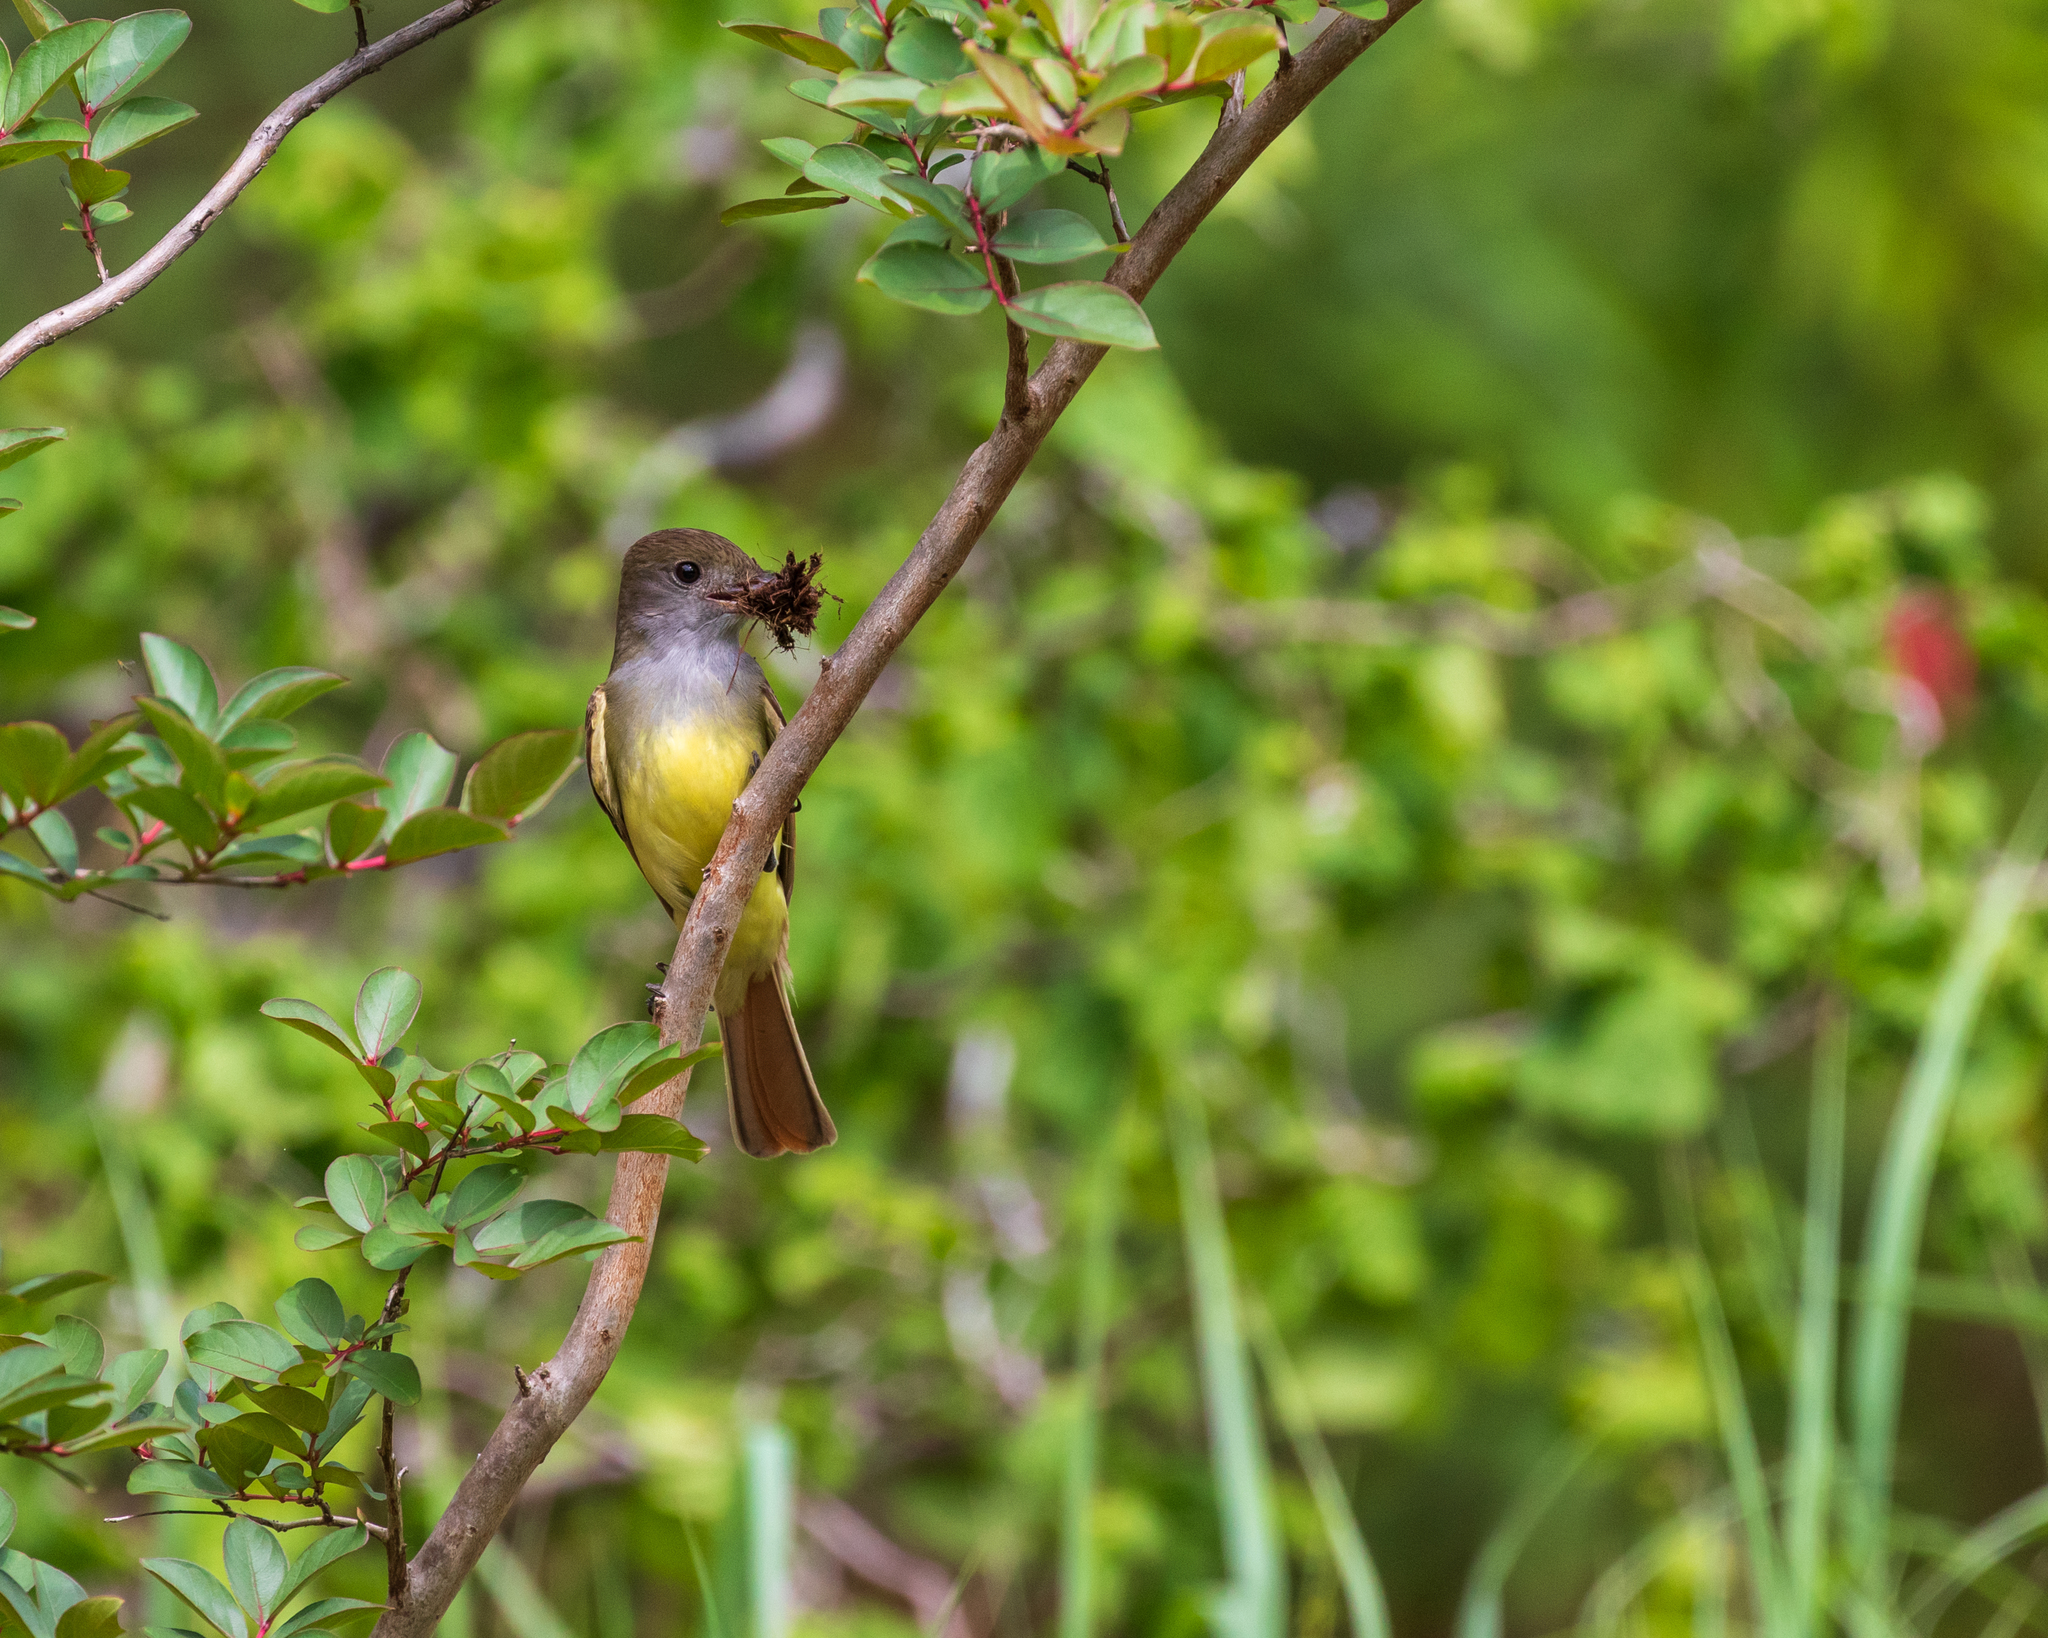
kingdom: Animalia
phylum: Chordata
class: Aves
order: Passeriformes
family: Tyrannidae
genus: Myiarchus
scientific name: Myiarchus crinitus
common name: Great crested flycatcher
